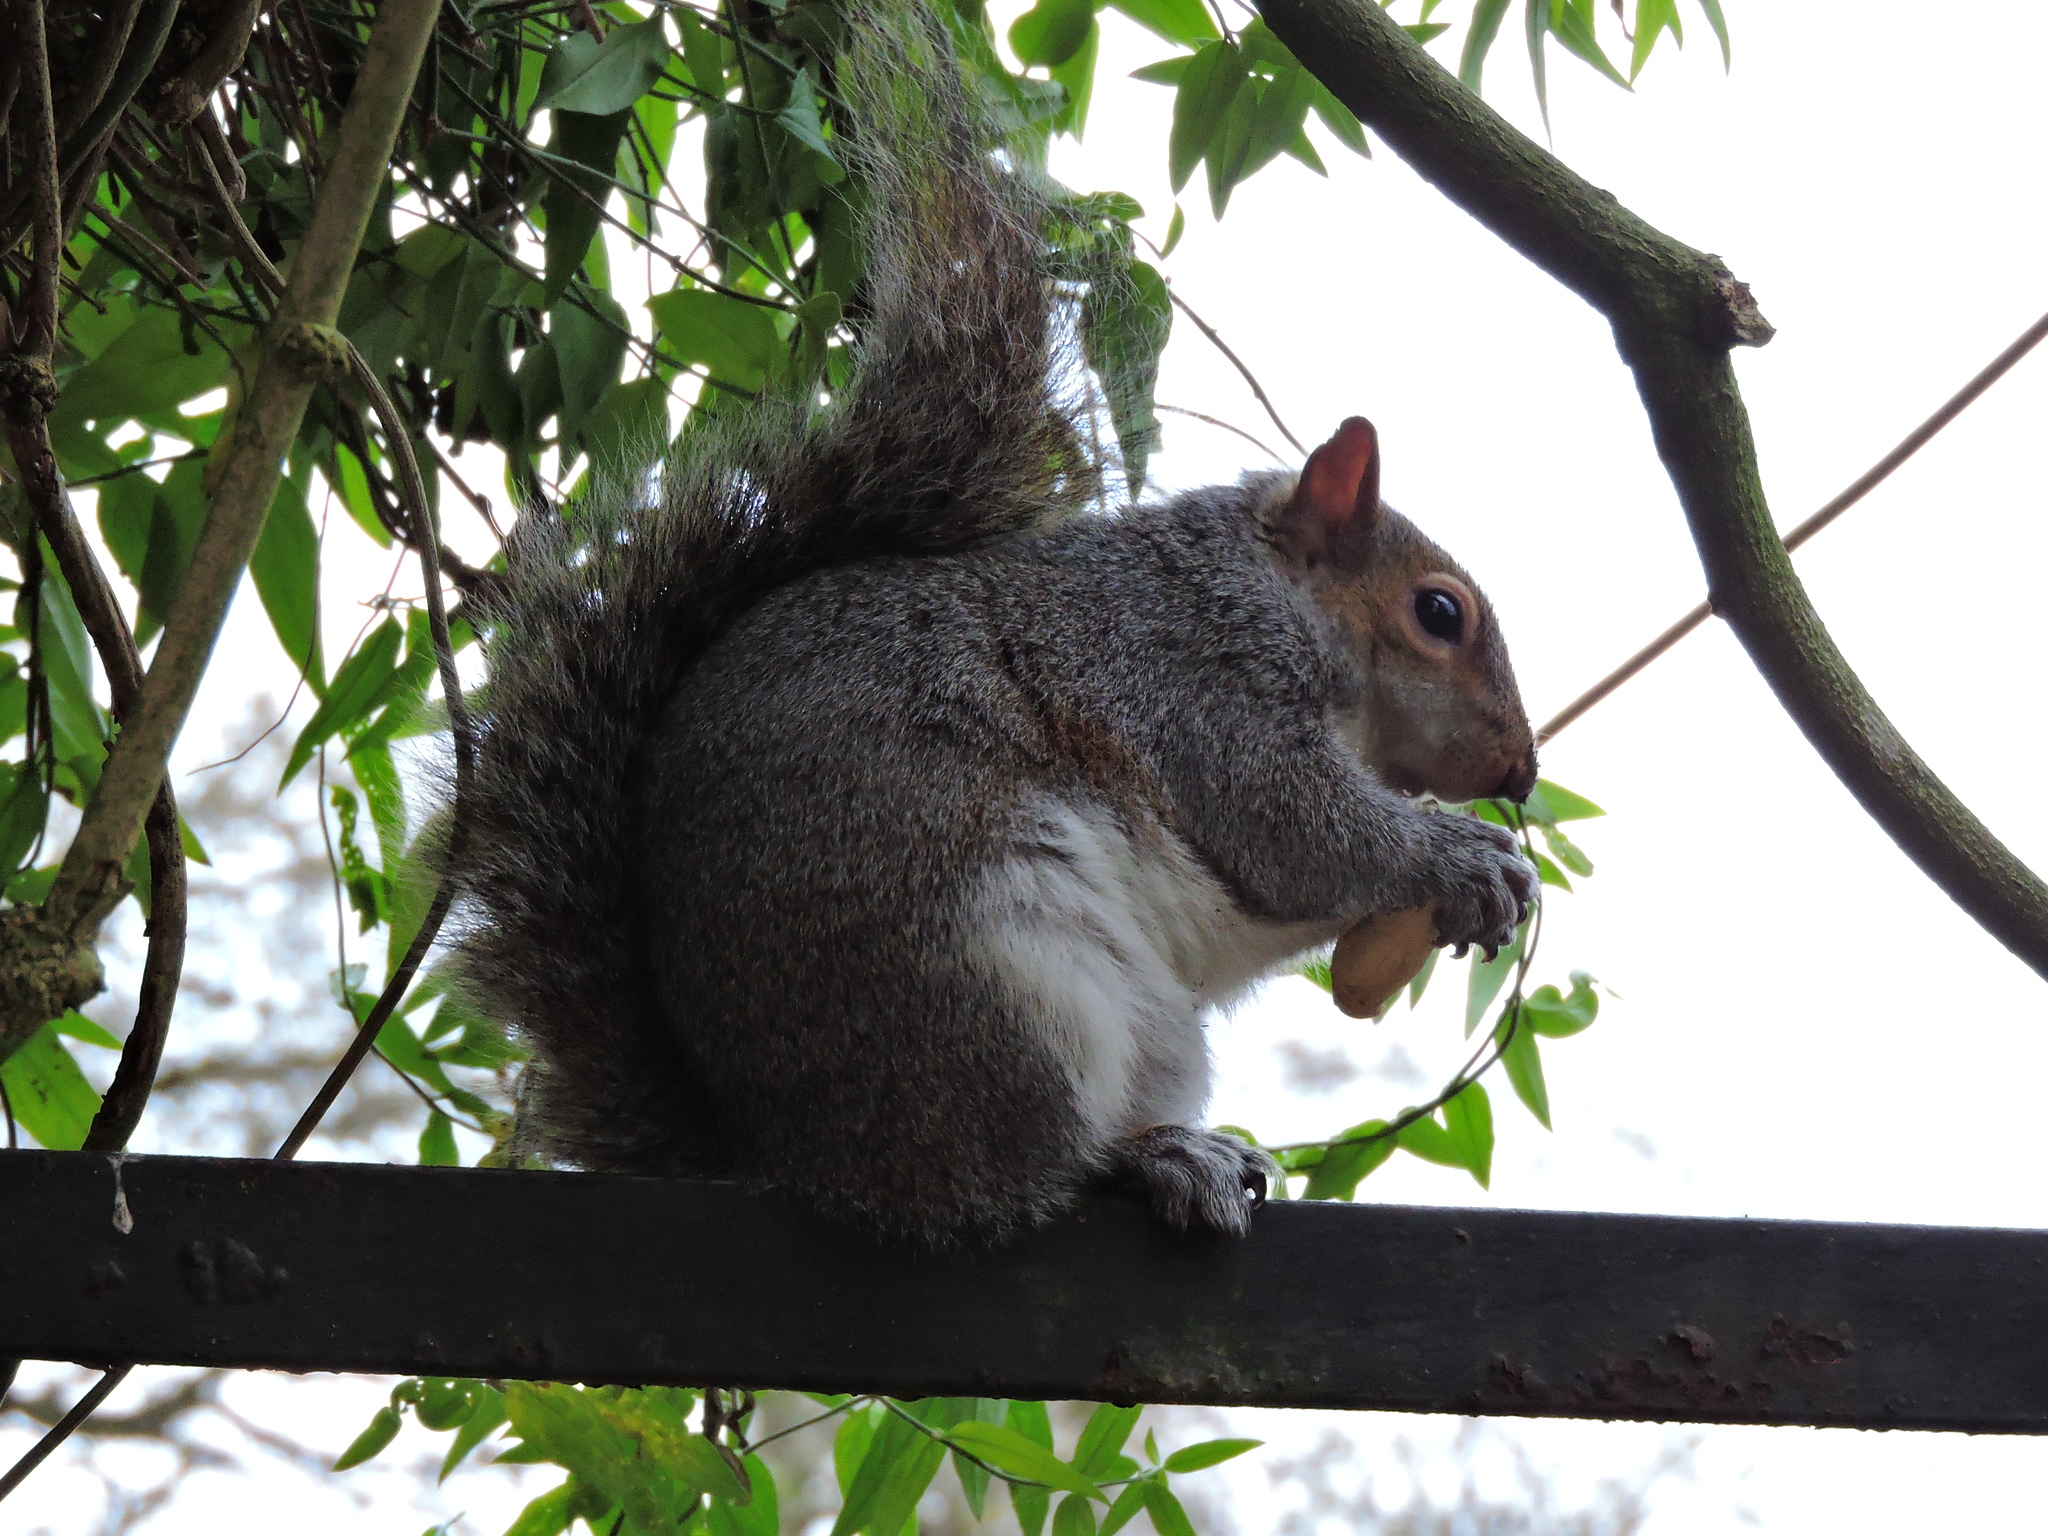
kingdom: Animalia
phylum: Chordata
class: Mammalia
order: Rodentia
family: Sciuridae
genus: Sciurus
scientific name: Sciurus carolinensis
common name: Eastern gray squirrel
